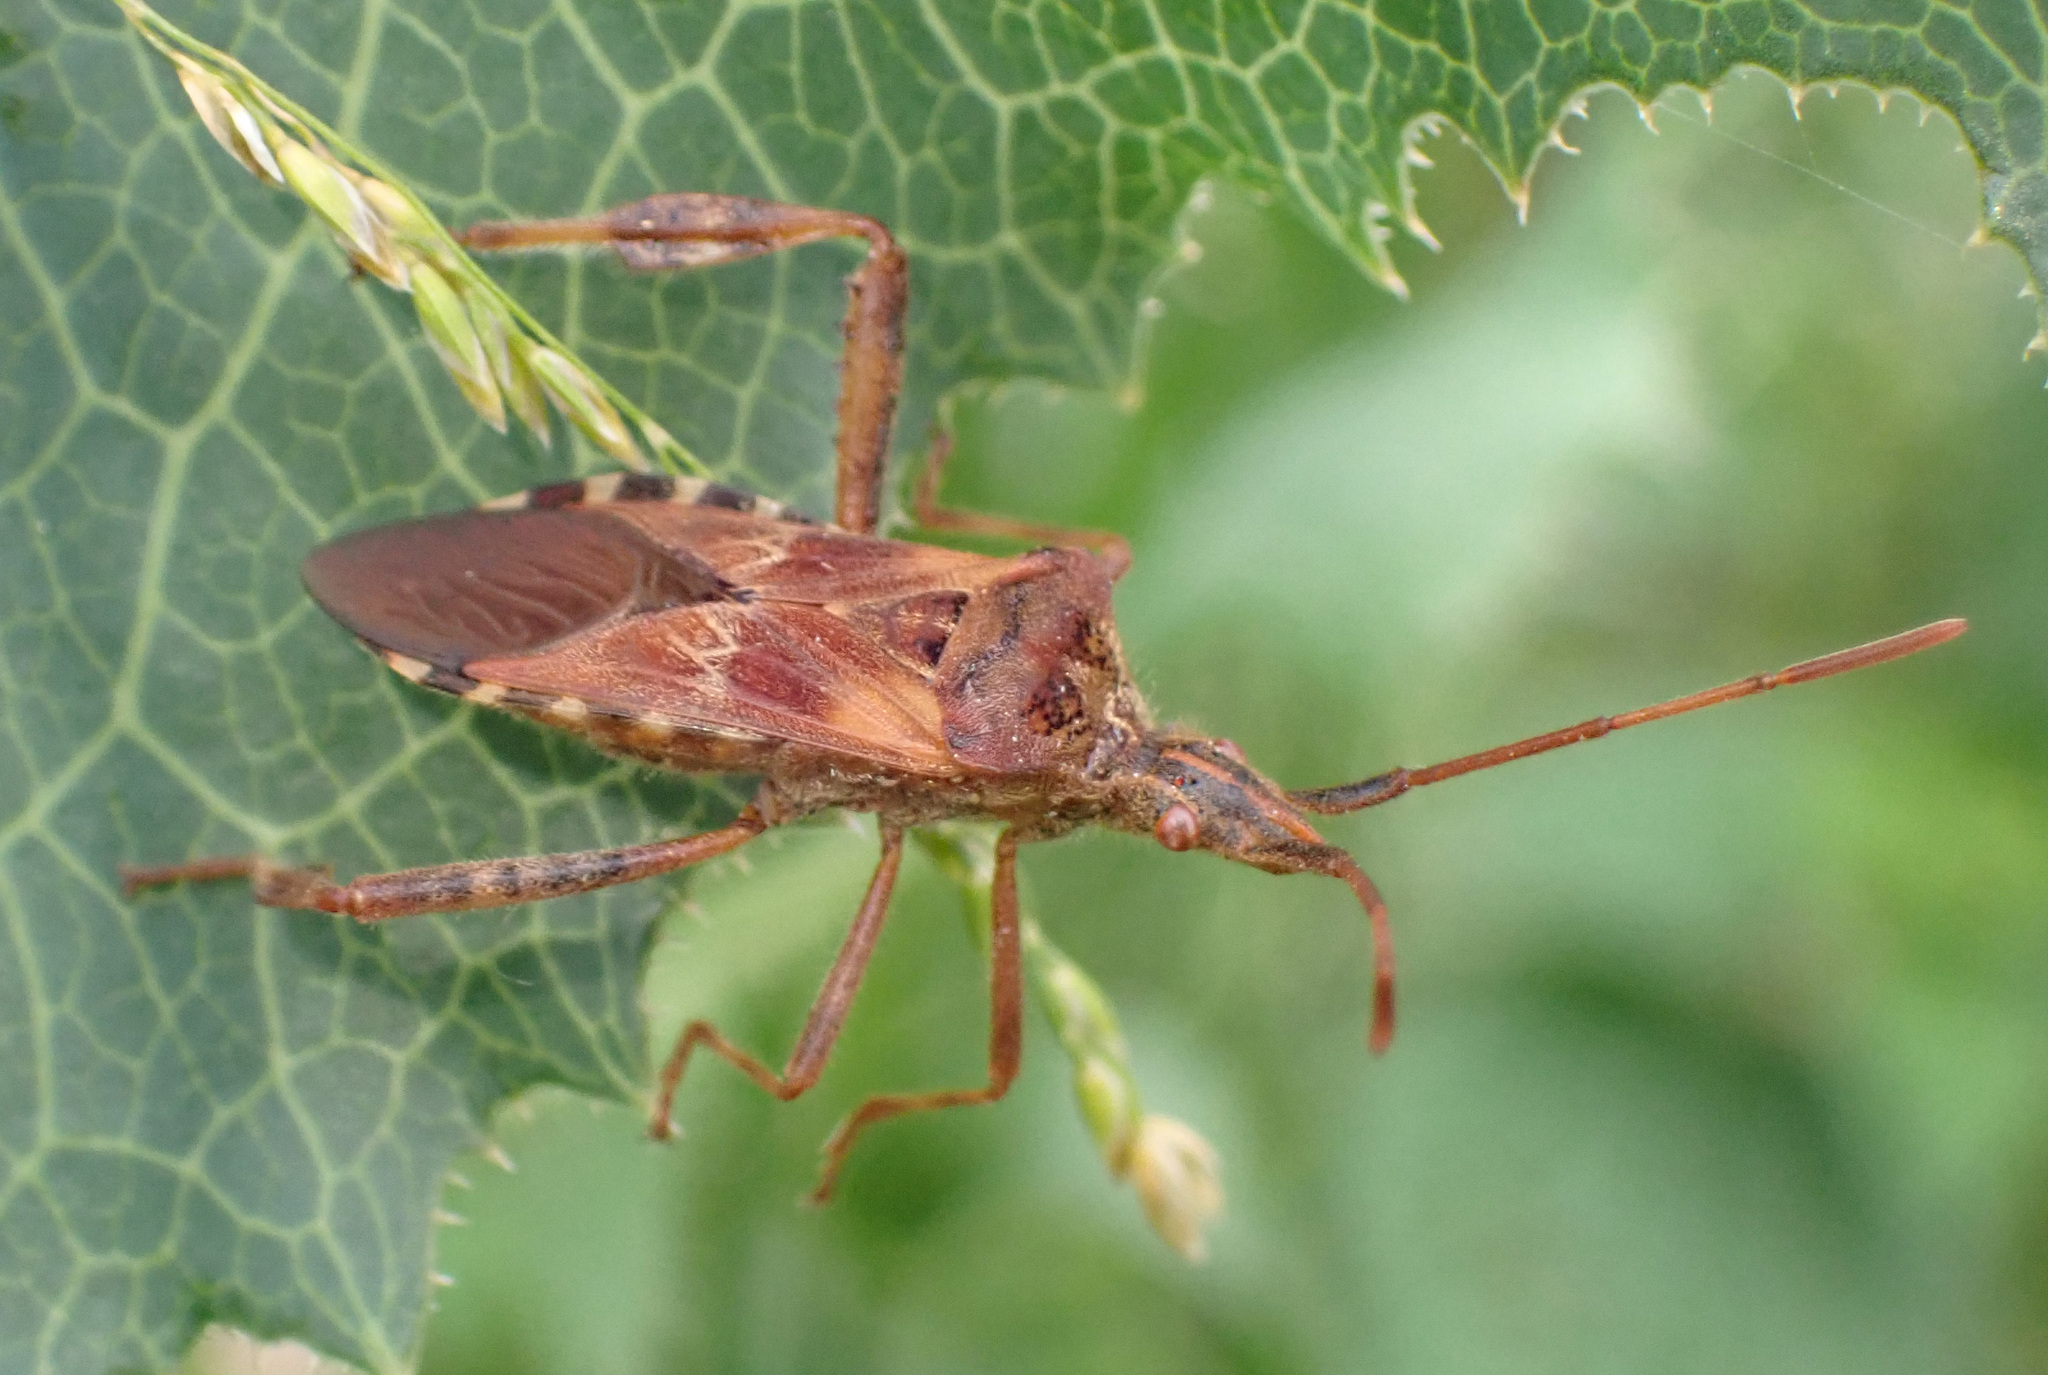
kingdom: Animalia
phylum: Arthropoda
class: Insecta
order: Hemiptera
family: Coreidae
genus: Leptoglossus
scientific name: Leptoglossus occidentalis
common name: Western conifer-seed bug
